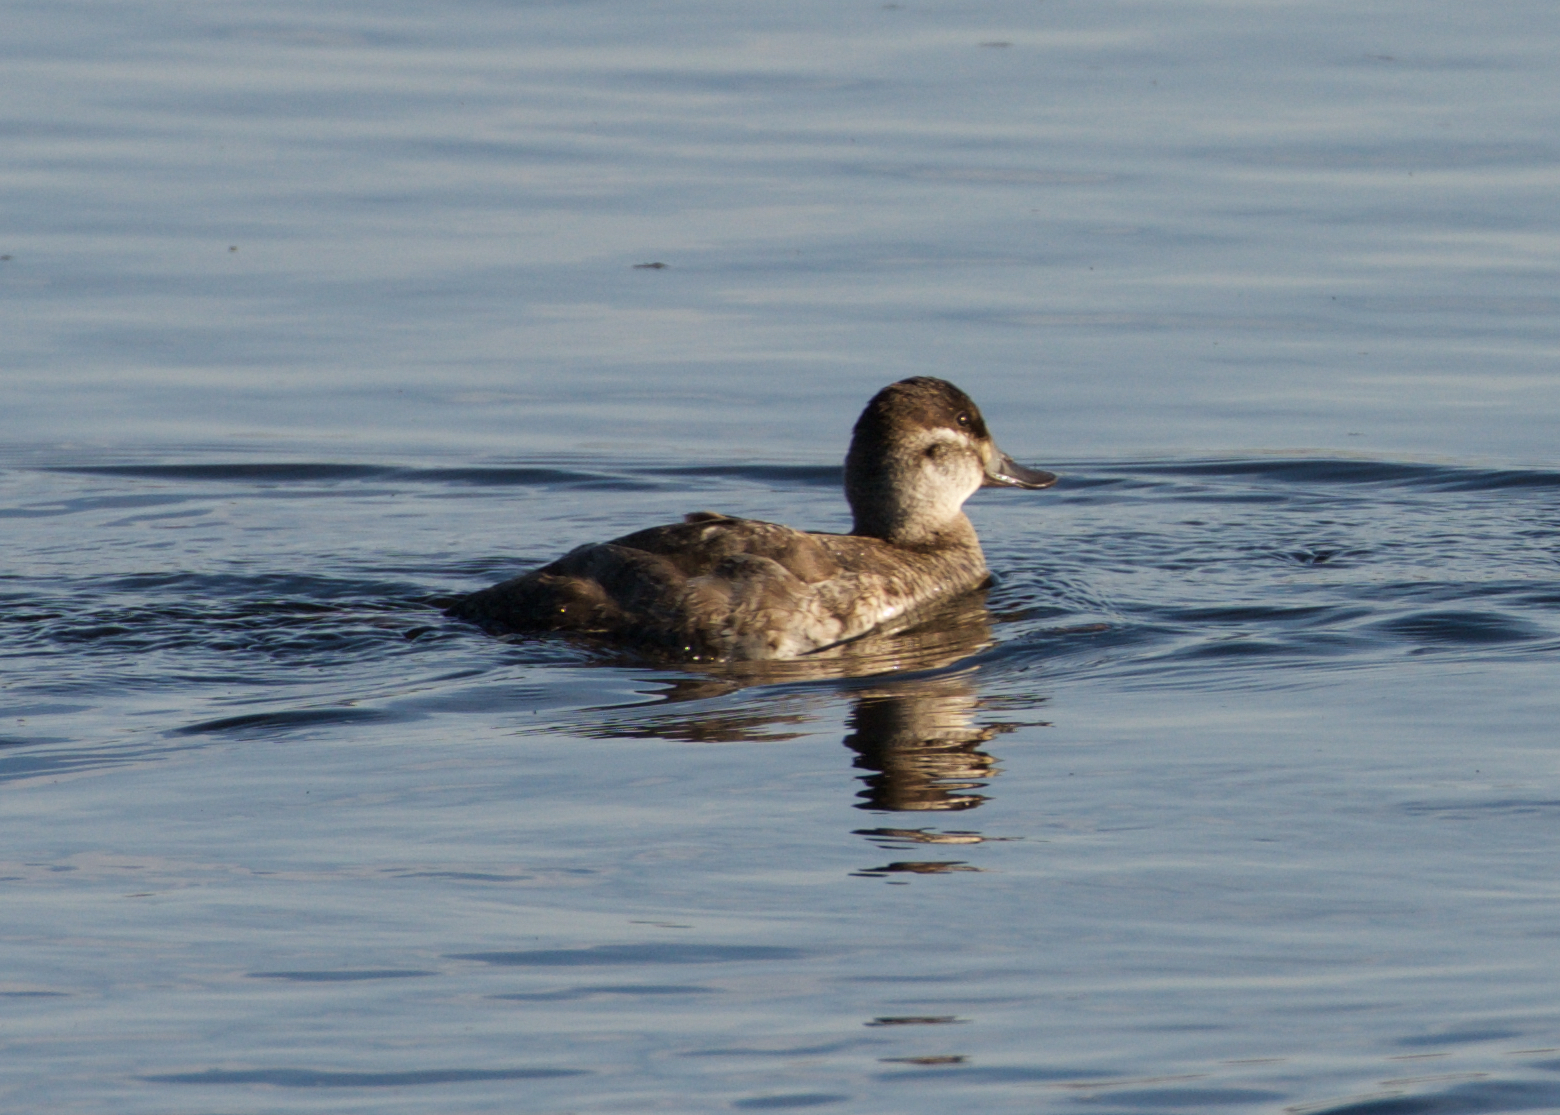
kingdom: Animalia
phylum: Chordata
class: Aves
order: Anseriformes
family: Anatidae
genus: Oxyura
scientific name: Oxyura jamaicensis
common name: Ruddy duck
